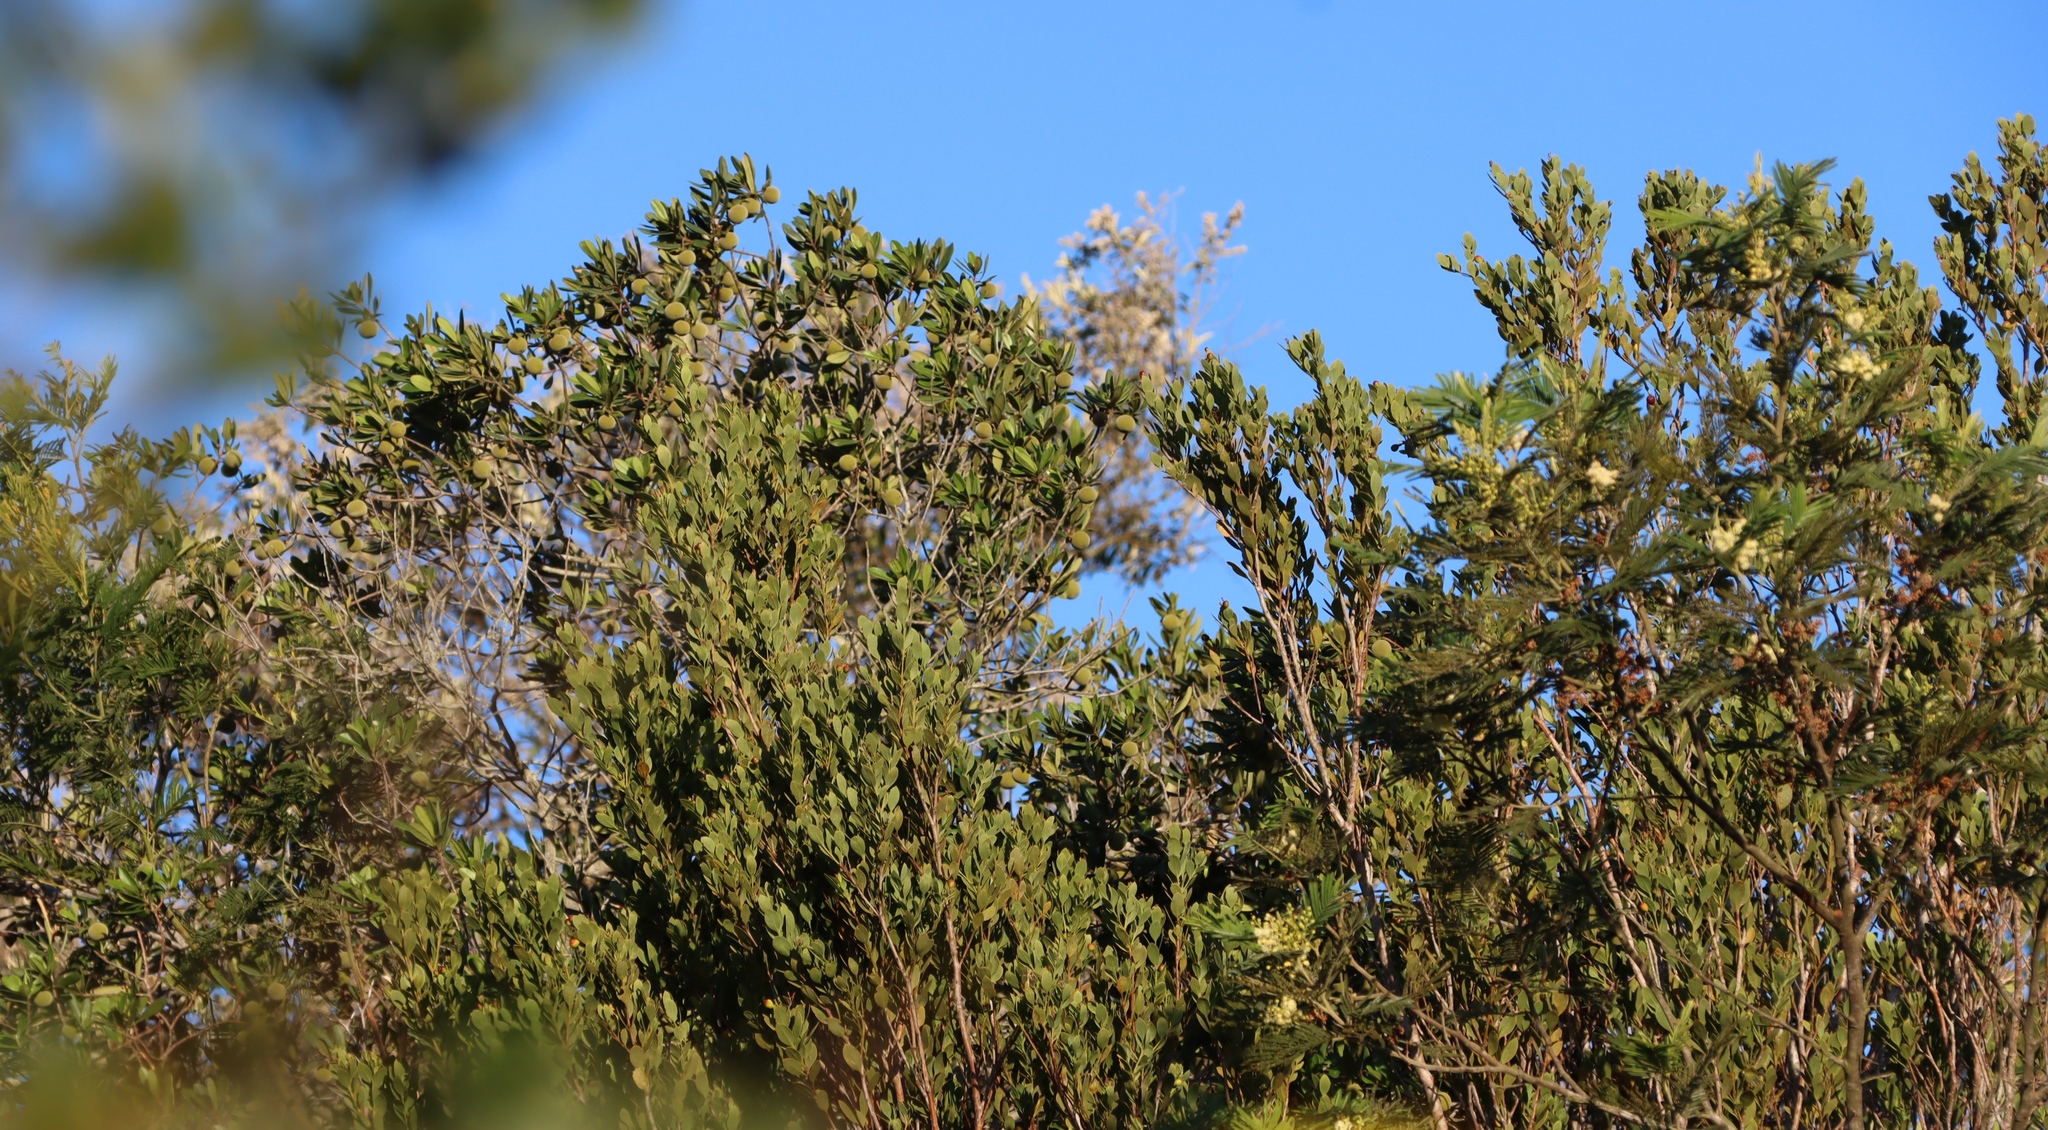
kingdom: Plantae
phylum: Tracheophyta
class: Magnoliopsida
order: Ericales
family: Ebenaceae
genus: Diospyros
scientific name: Diospyros dichrophylla
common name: Common star-apple
